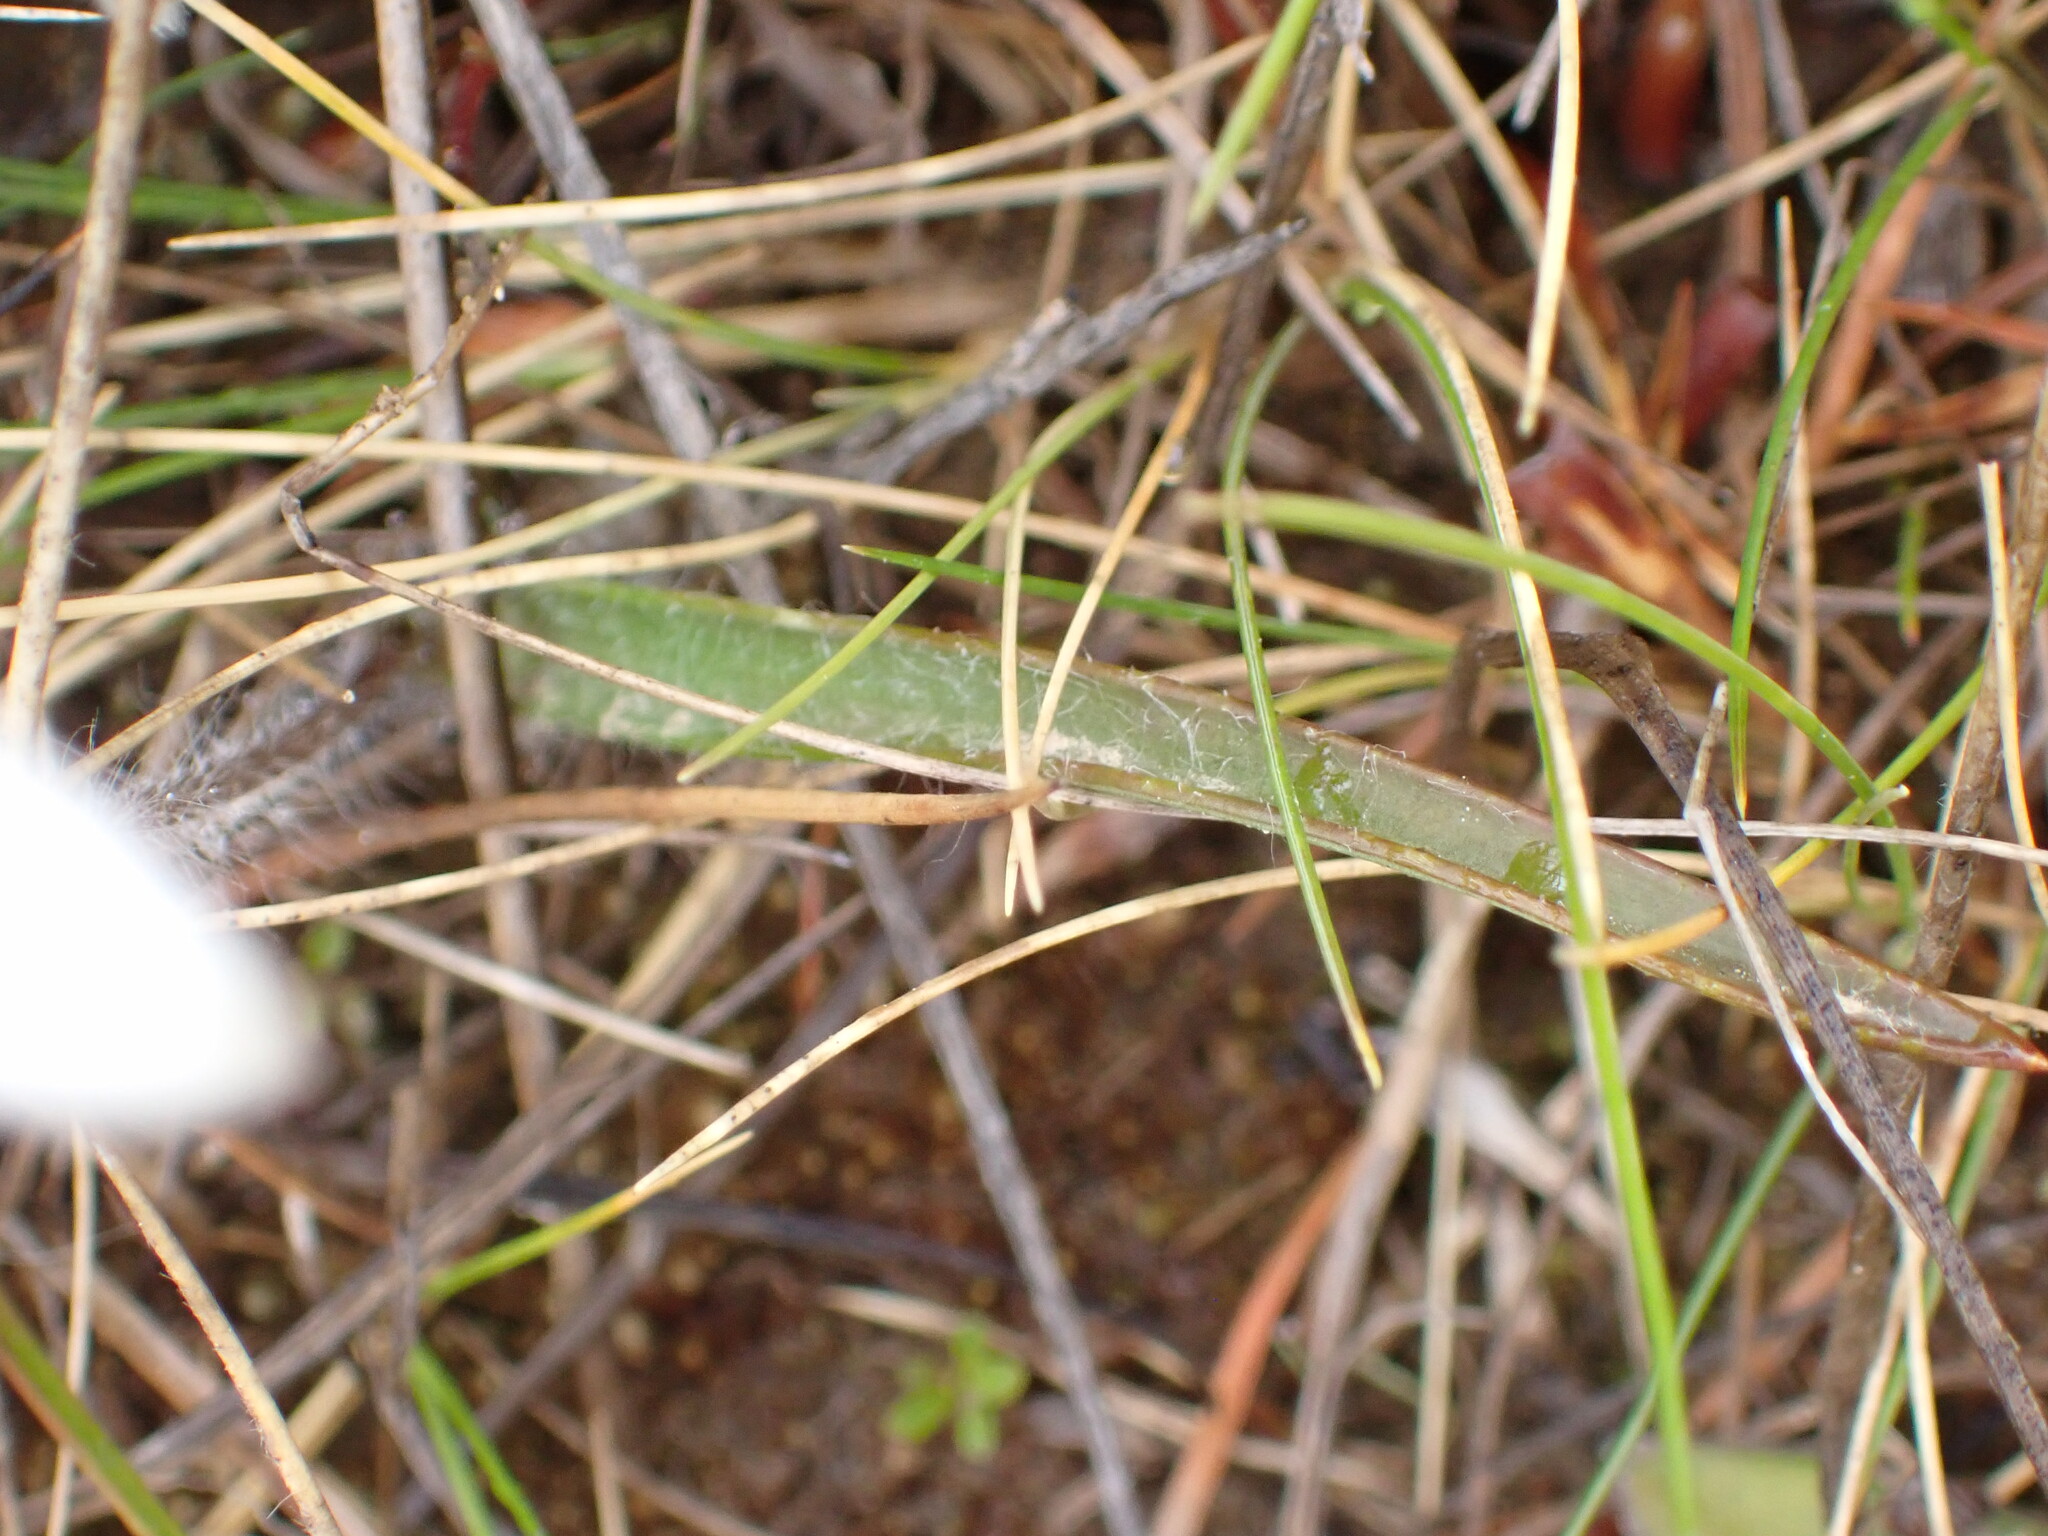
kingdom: Plantae
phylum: Tracheophyta
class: Liliopsida
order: Asparagales
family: Orchidaceae
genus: Caladenia
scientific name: Caladenia lyallii
